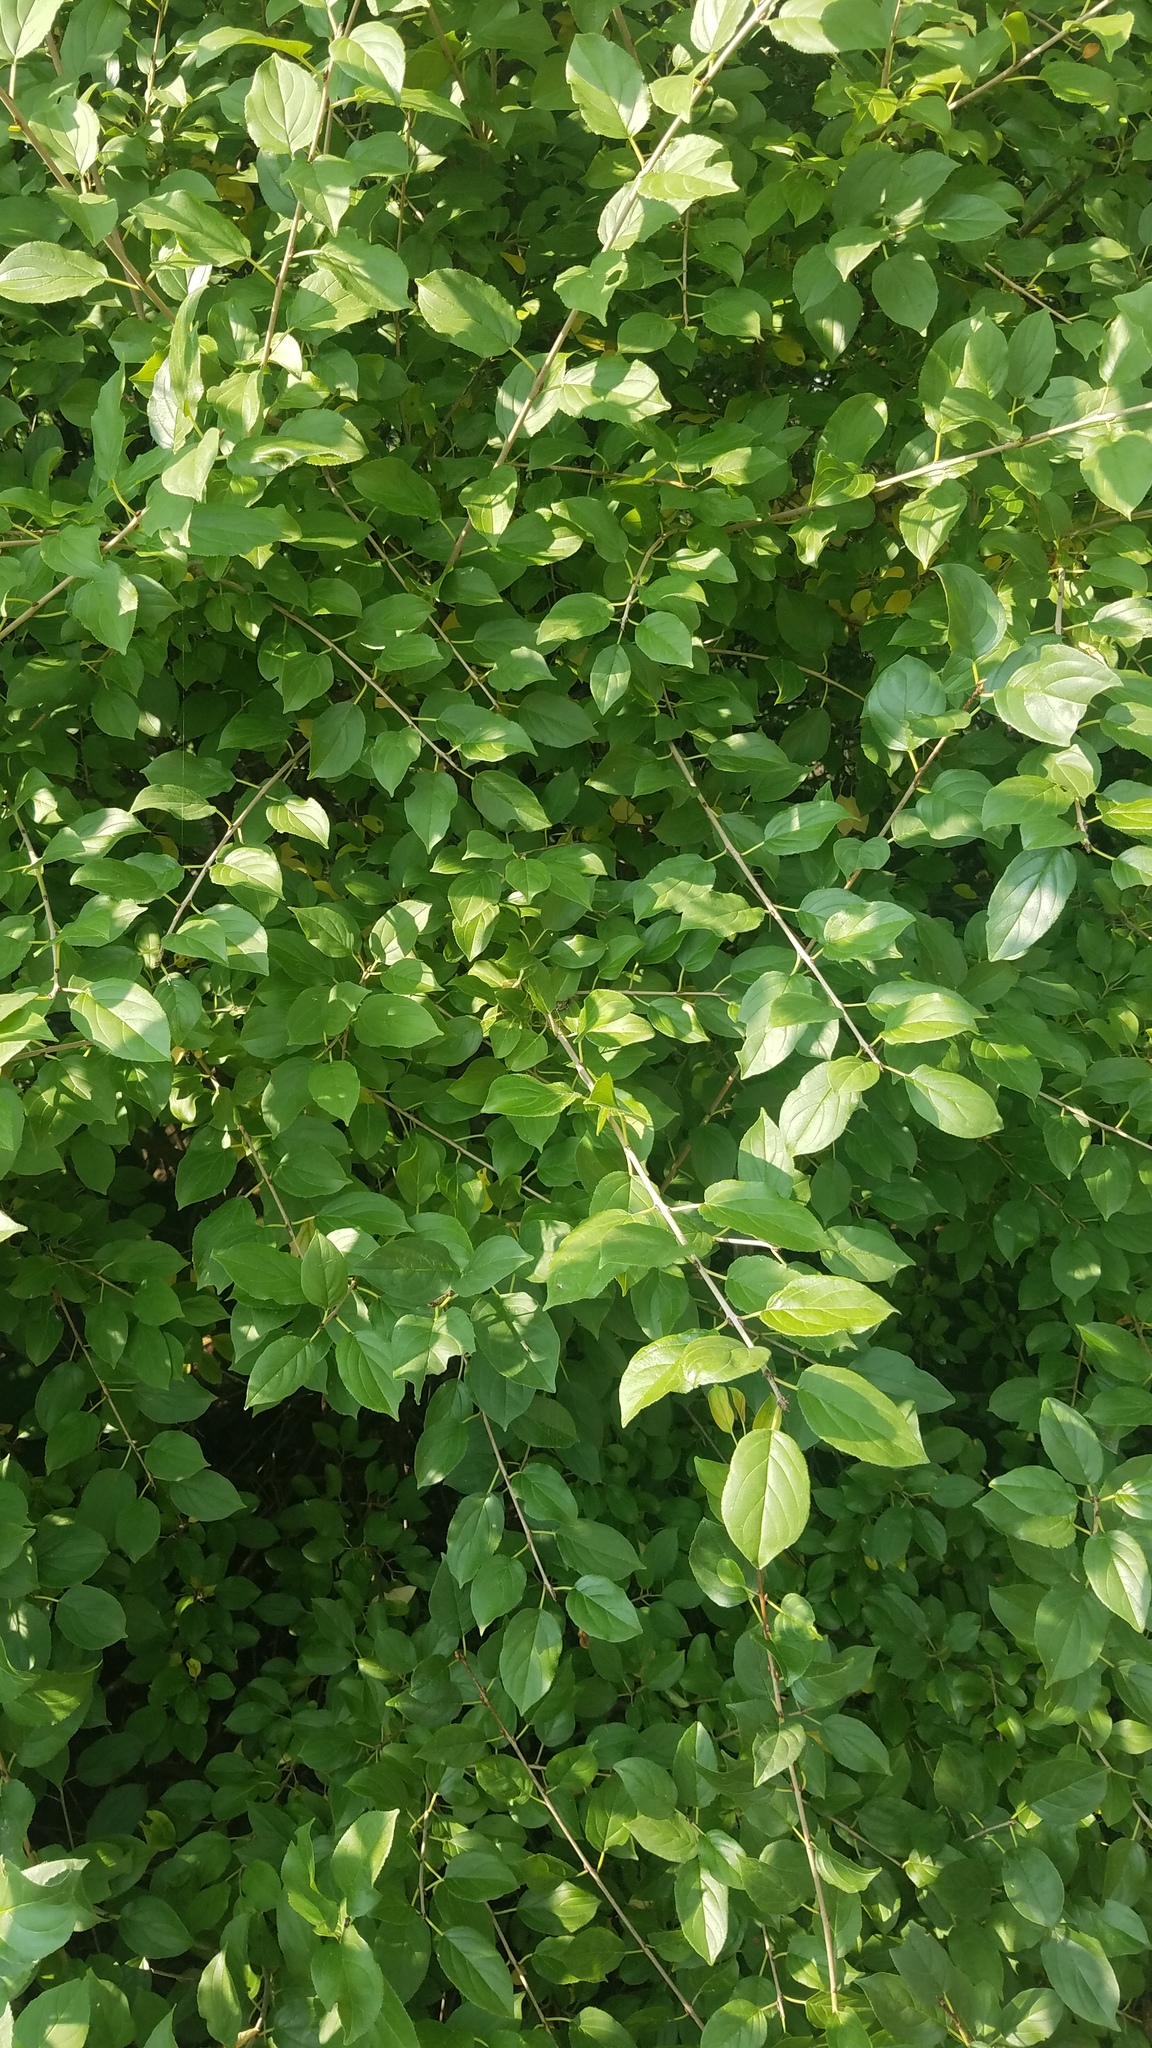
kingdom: Plantae
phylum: Tracheophyta
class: Magnoliopsida
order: Rosales
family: Rhamnaceae
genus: Rhamnus
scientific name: Rhamnus cathartica
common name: Common buckthorn
